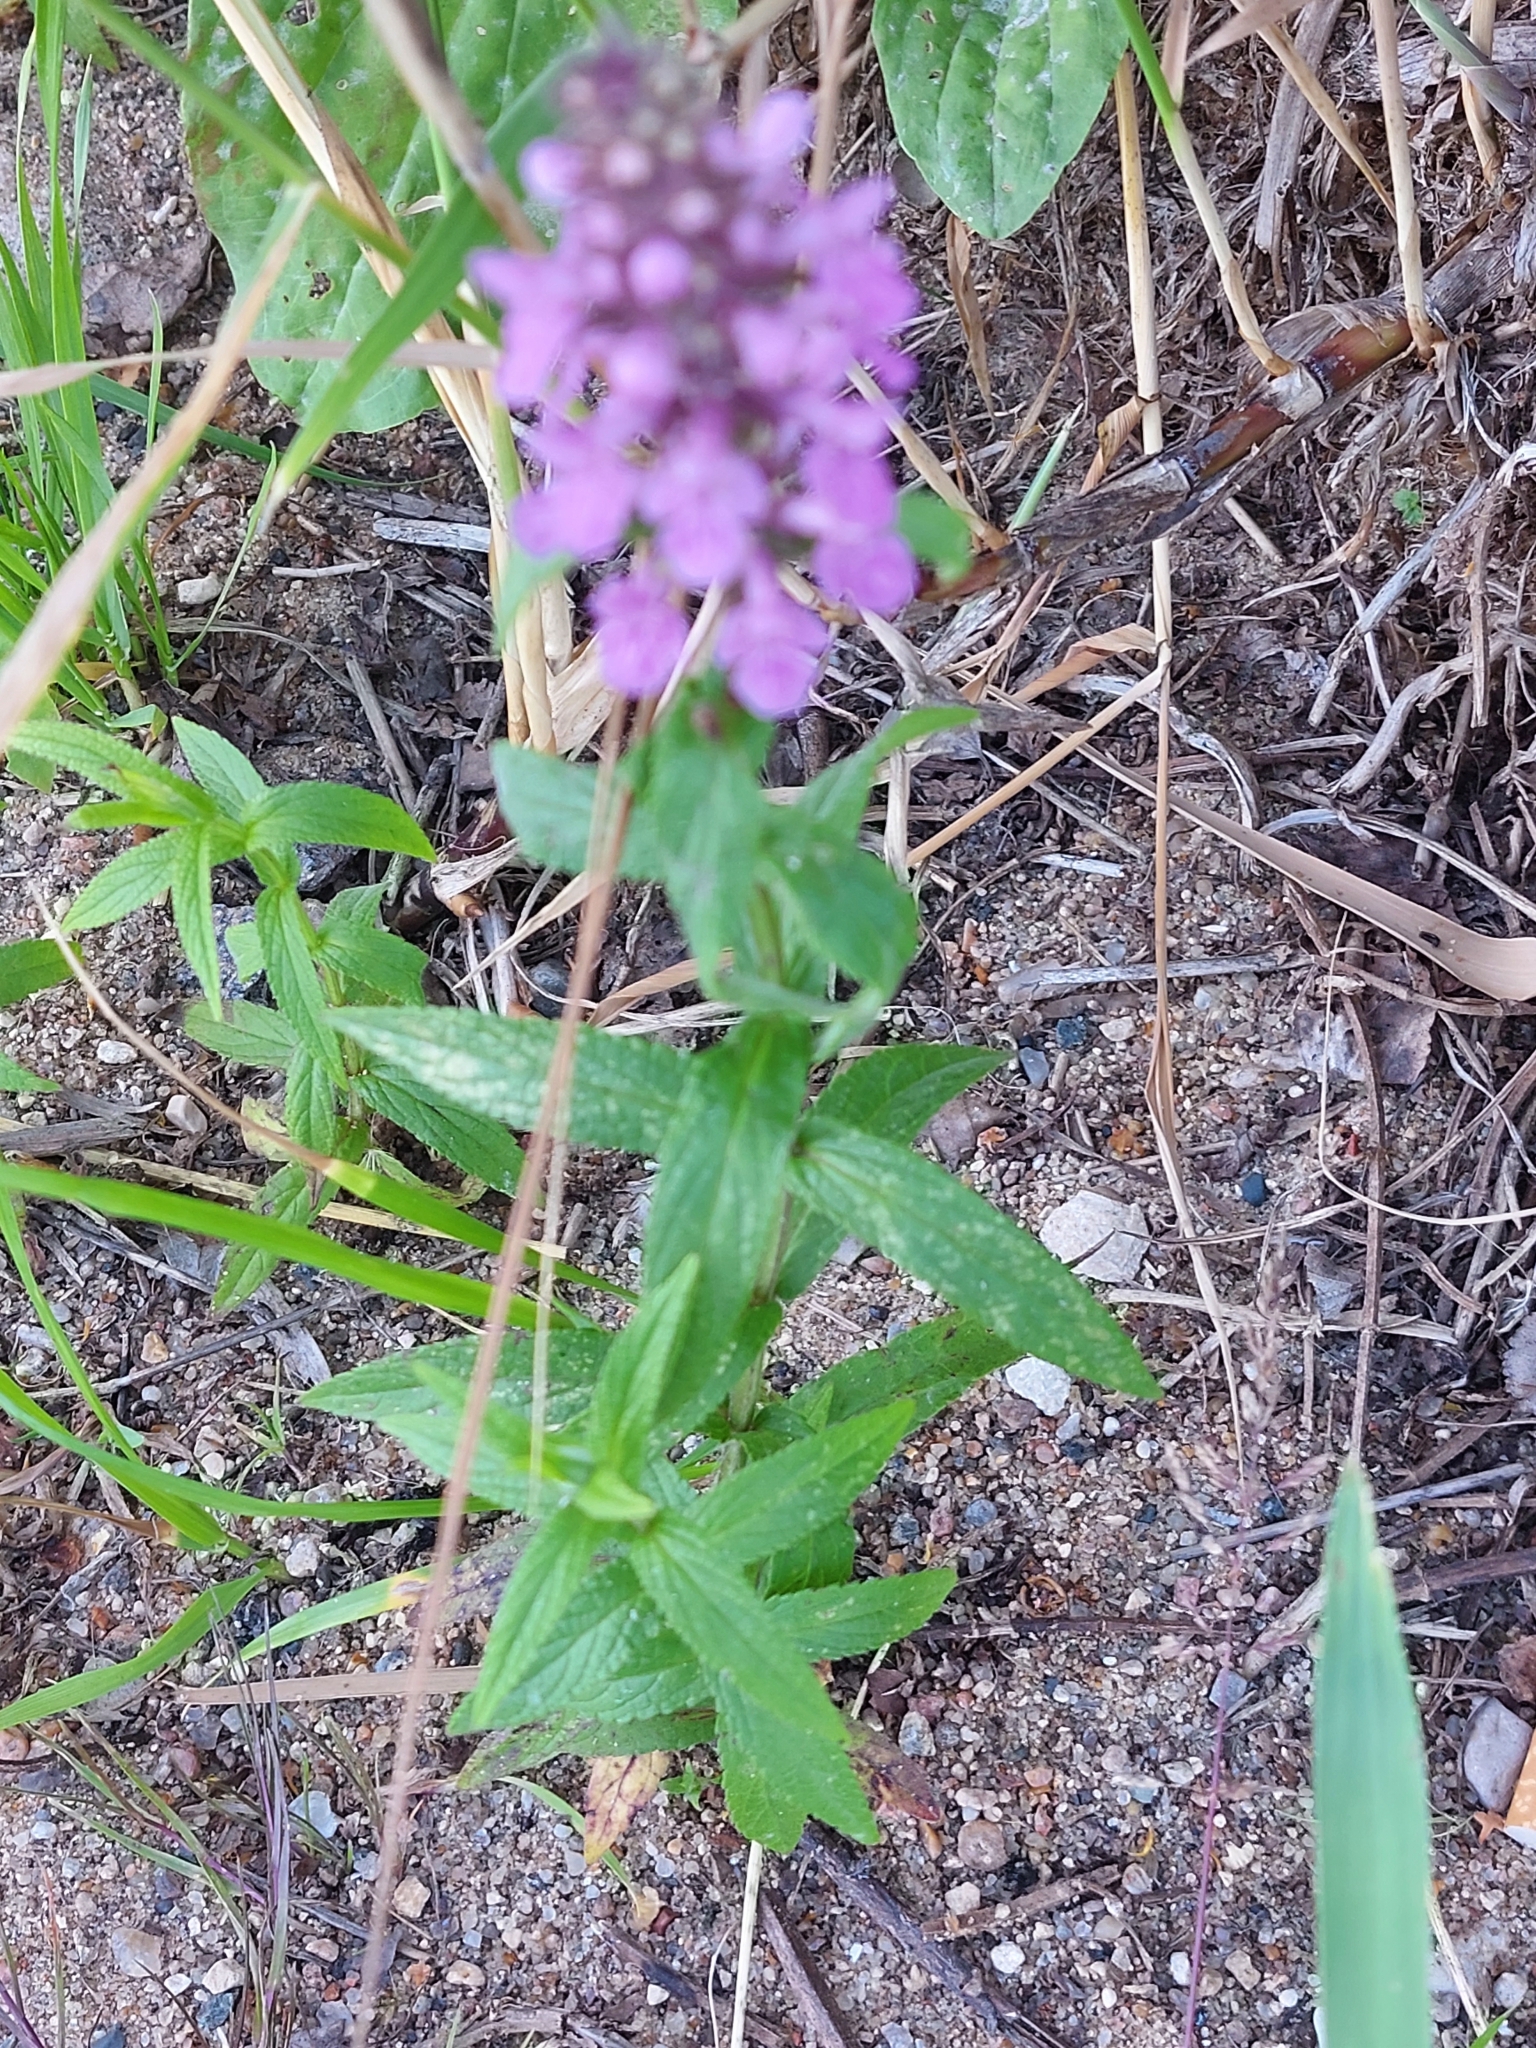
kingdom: Plantae
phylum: Tracheophyta
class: Magnoliopsida
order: Lamiales
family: Lamiaceae
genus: Stachys
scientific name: Stachys palustris
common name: Marsh woundwort
